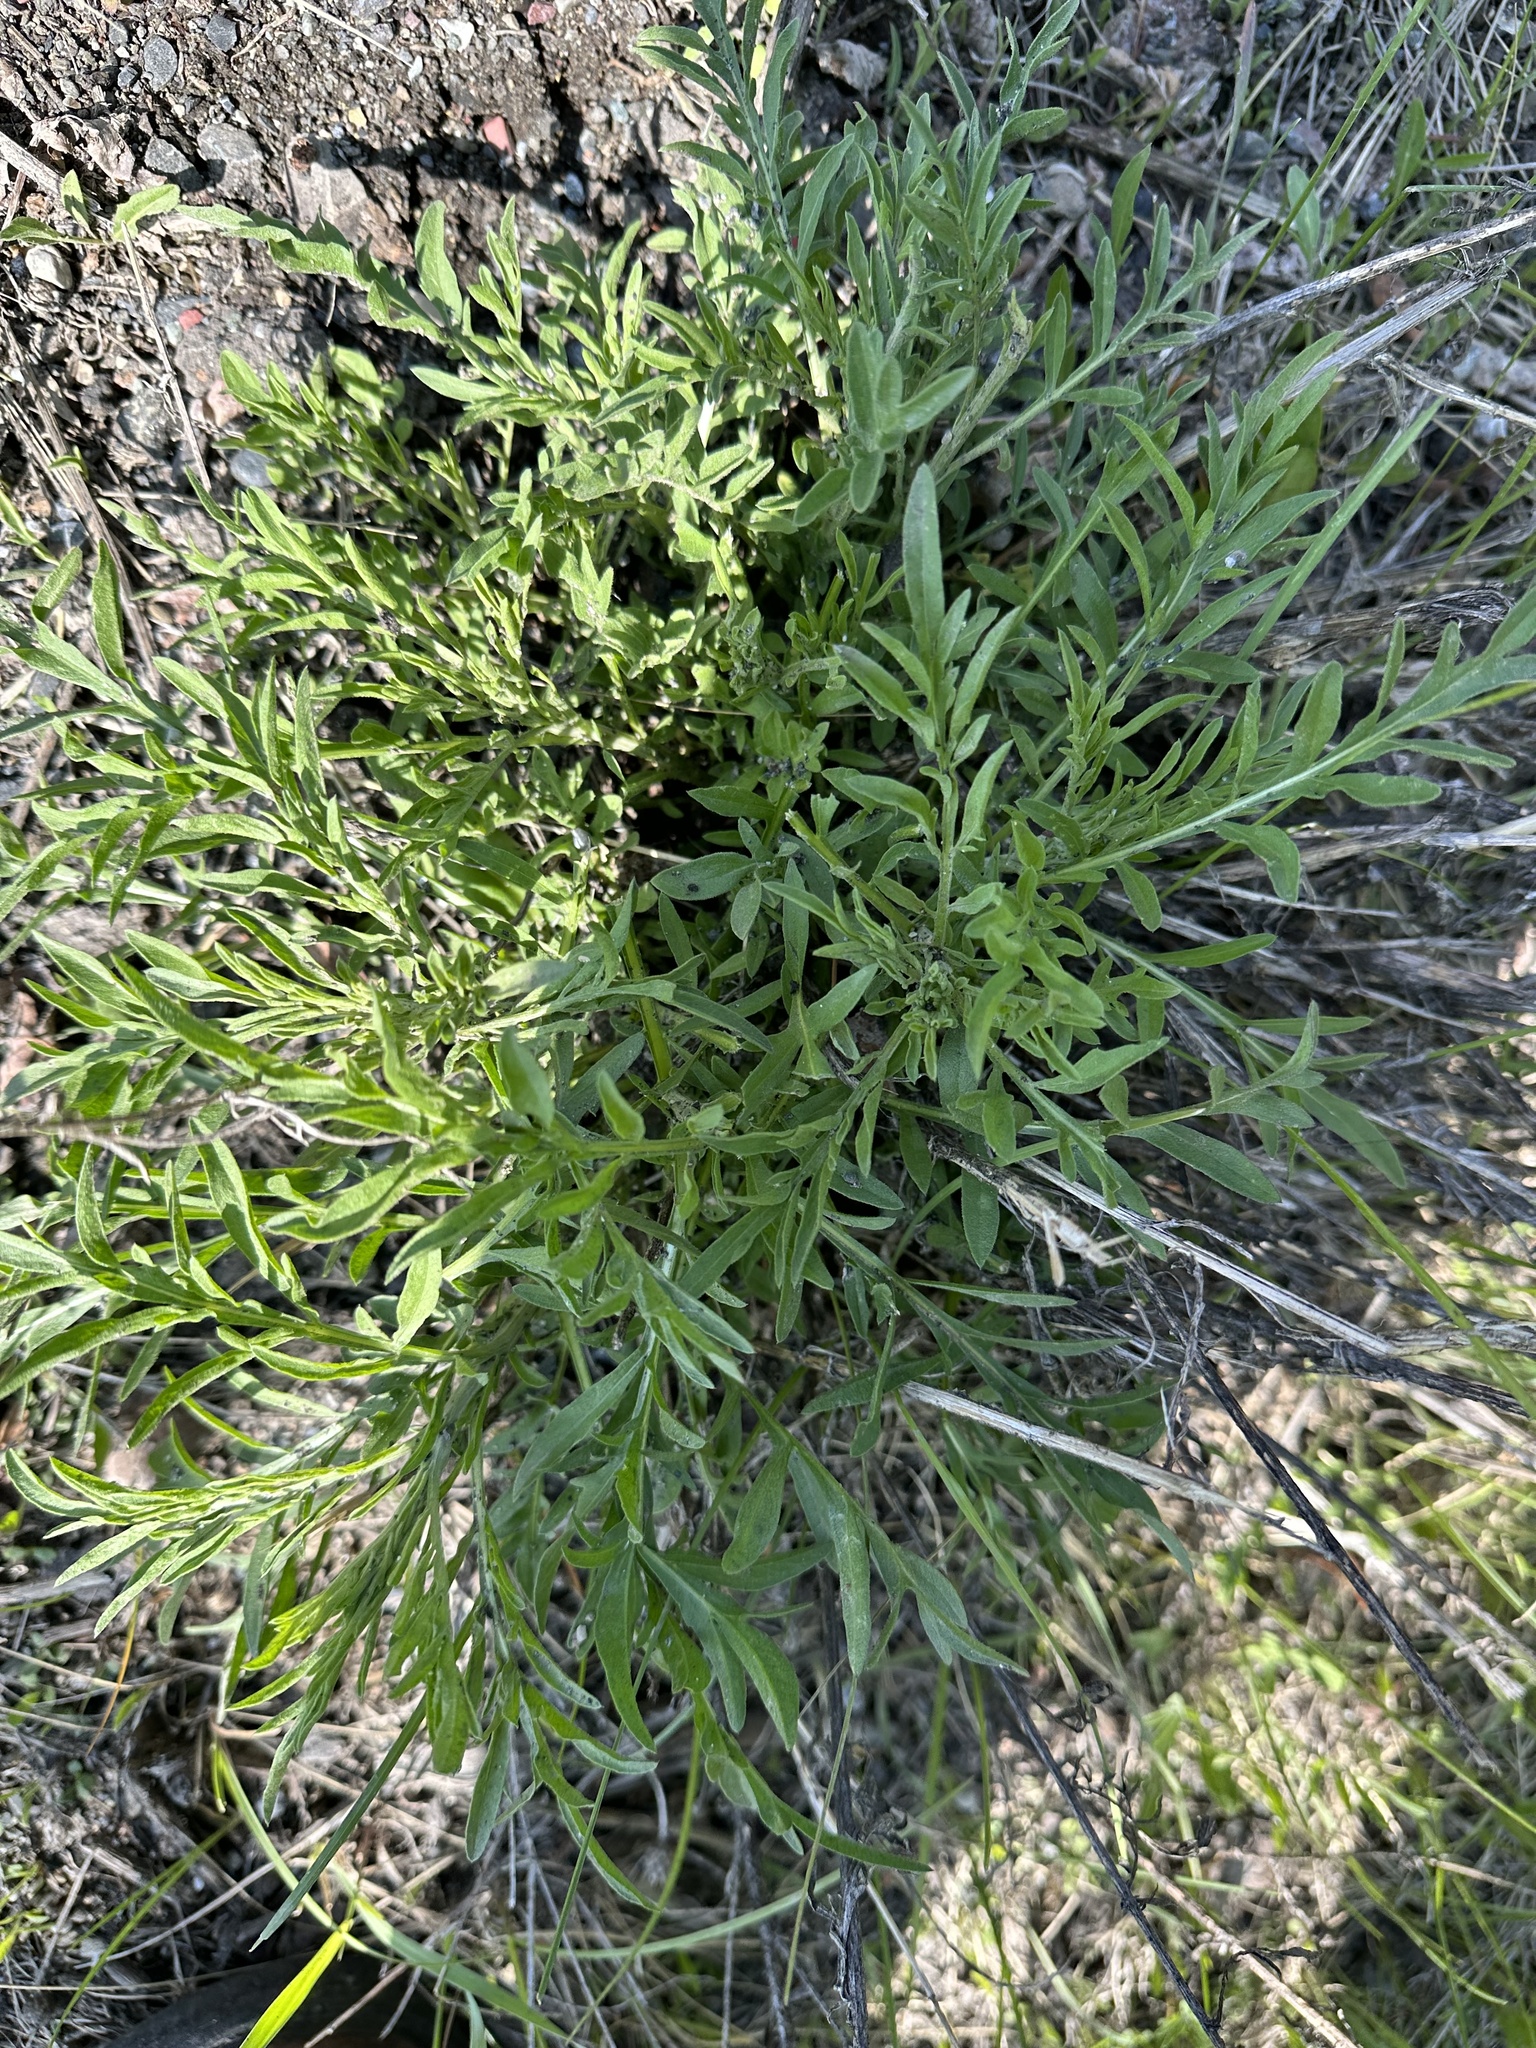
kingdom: Plantae
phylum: Tracheophyta
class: Magnoliopsida
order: Asterales
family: Asteraceae
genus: Centaurea
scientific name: Centaurea stoebe
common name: Spotted knapweed
